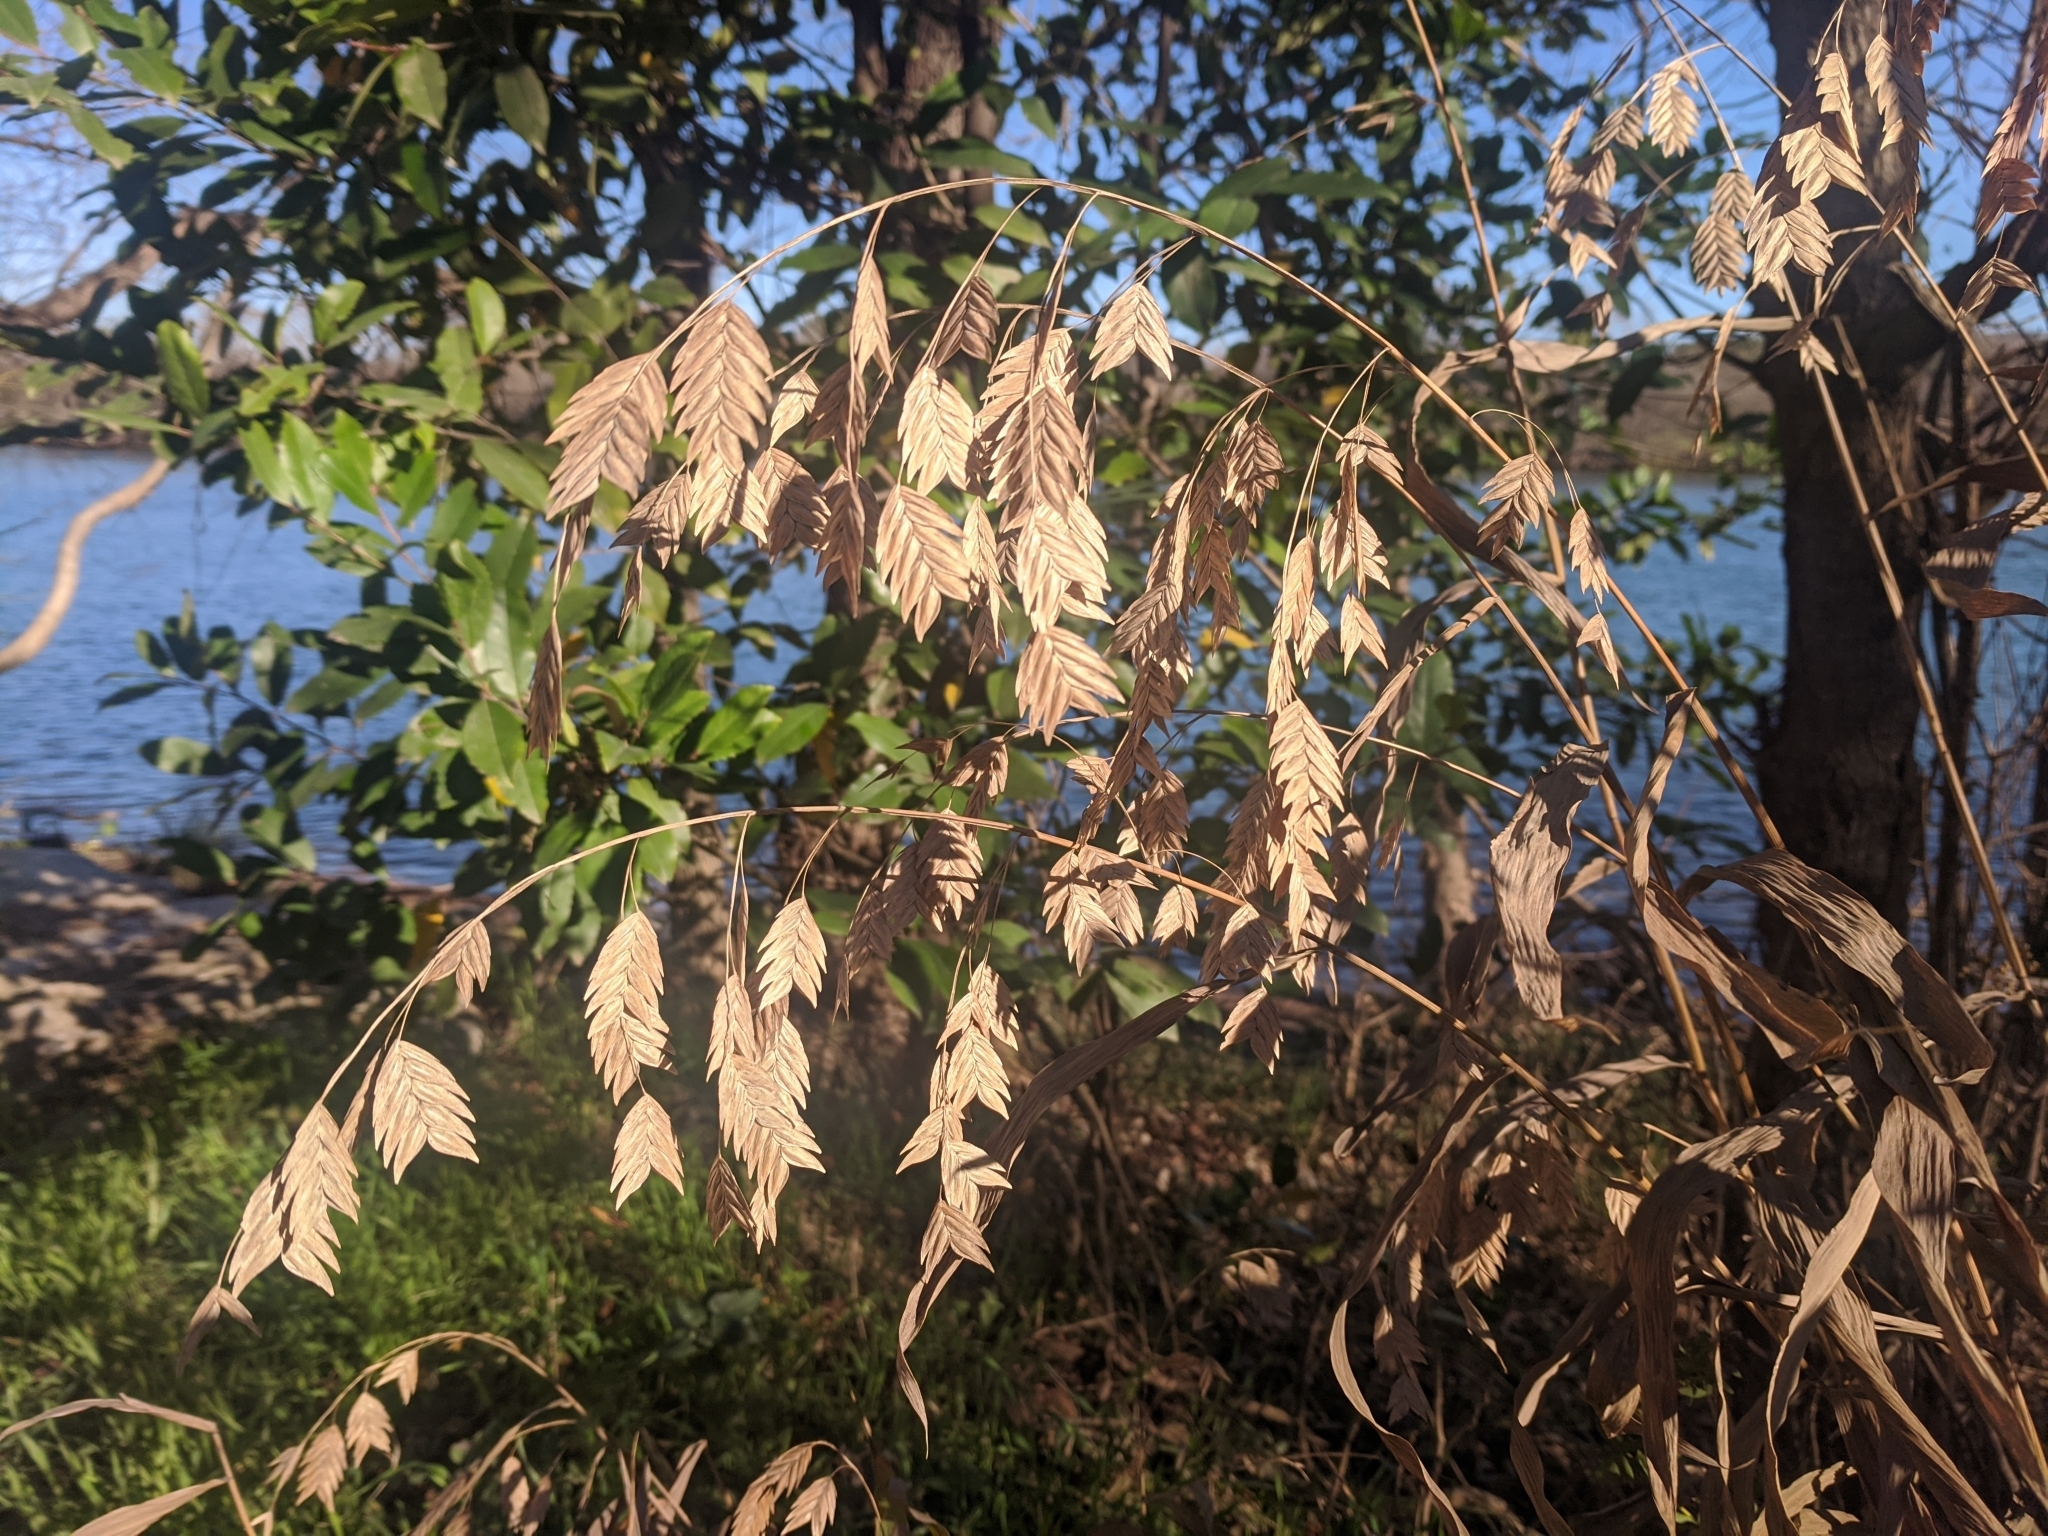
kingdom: Plantae
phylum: Tracheophyta
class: Liliopsida
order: Poales
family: Poaceae
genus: Chasmanthium
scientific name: Chasmanthium latifolium
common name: Broad-leaved chasmanthium
